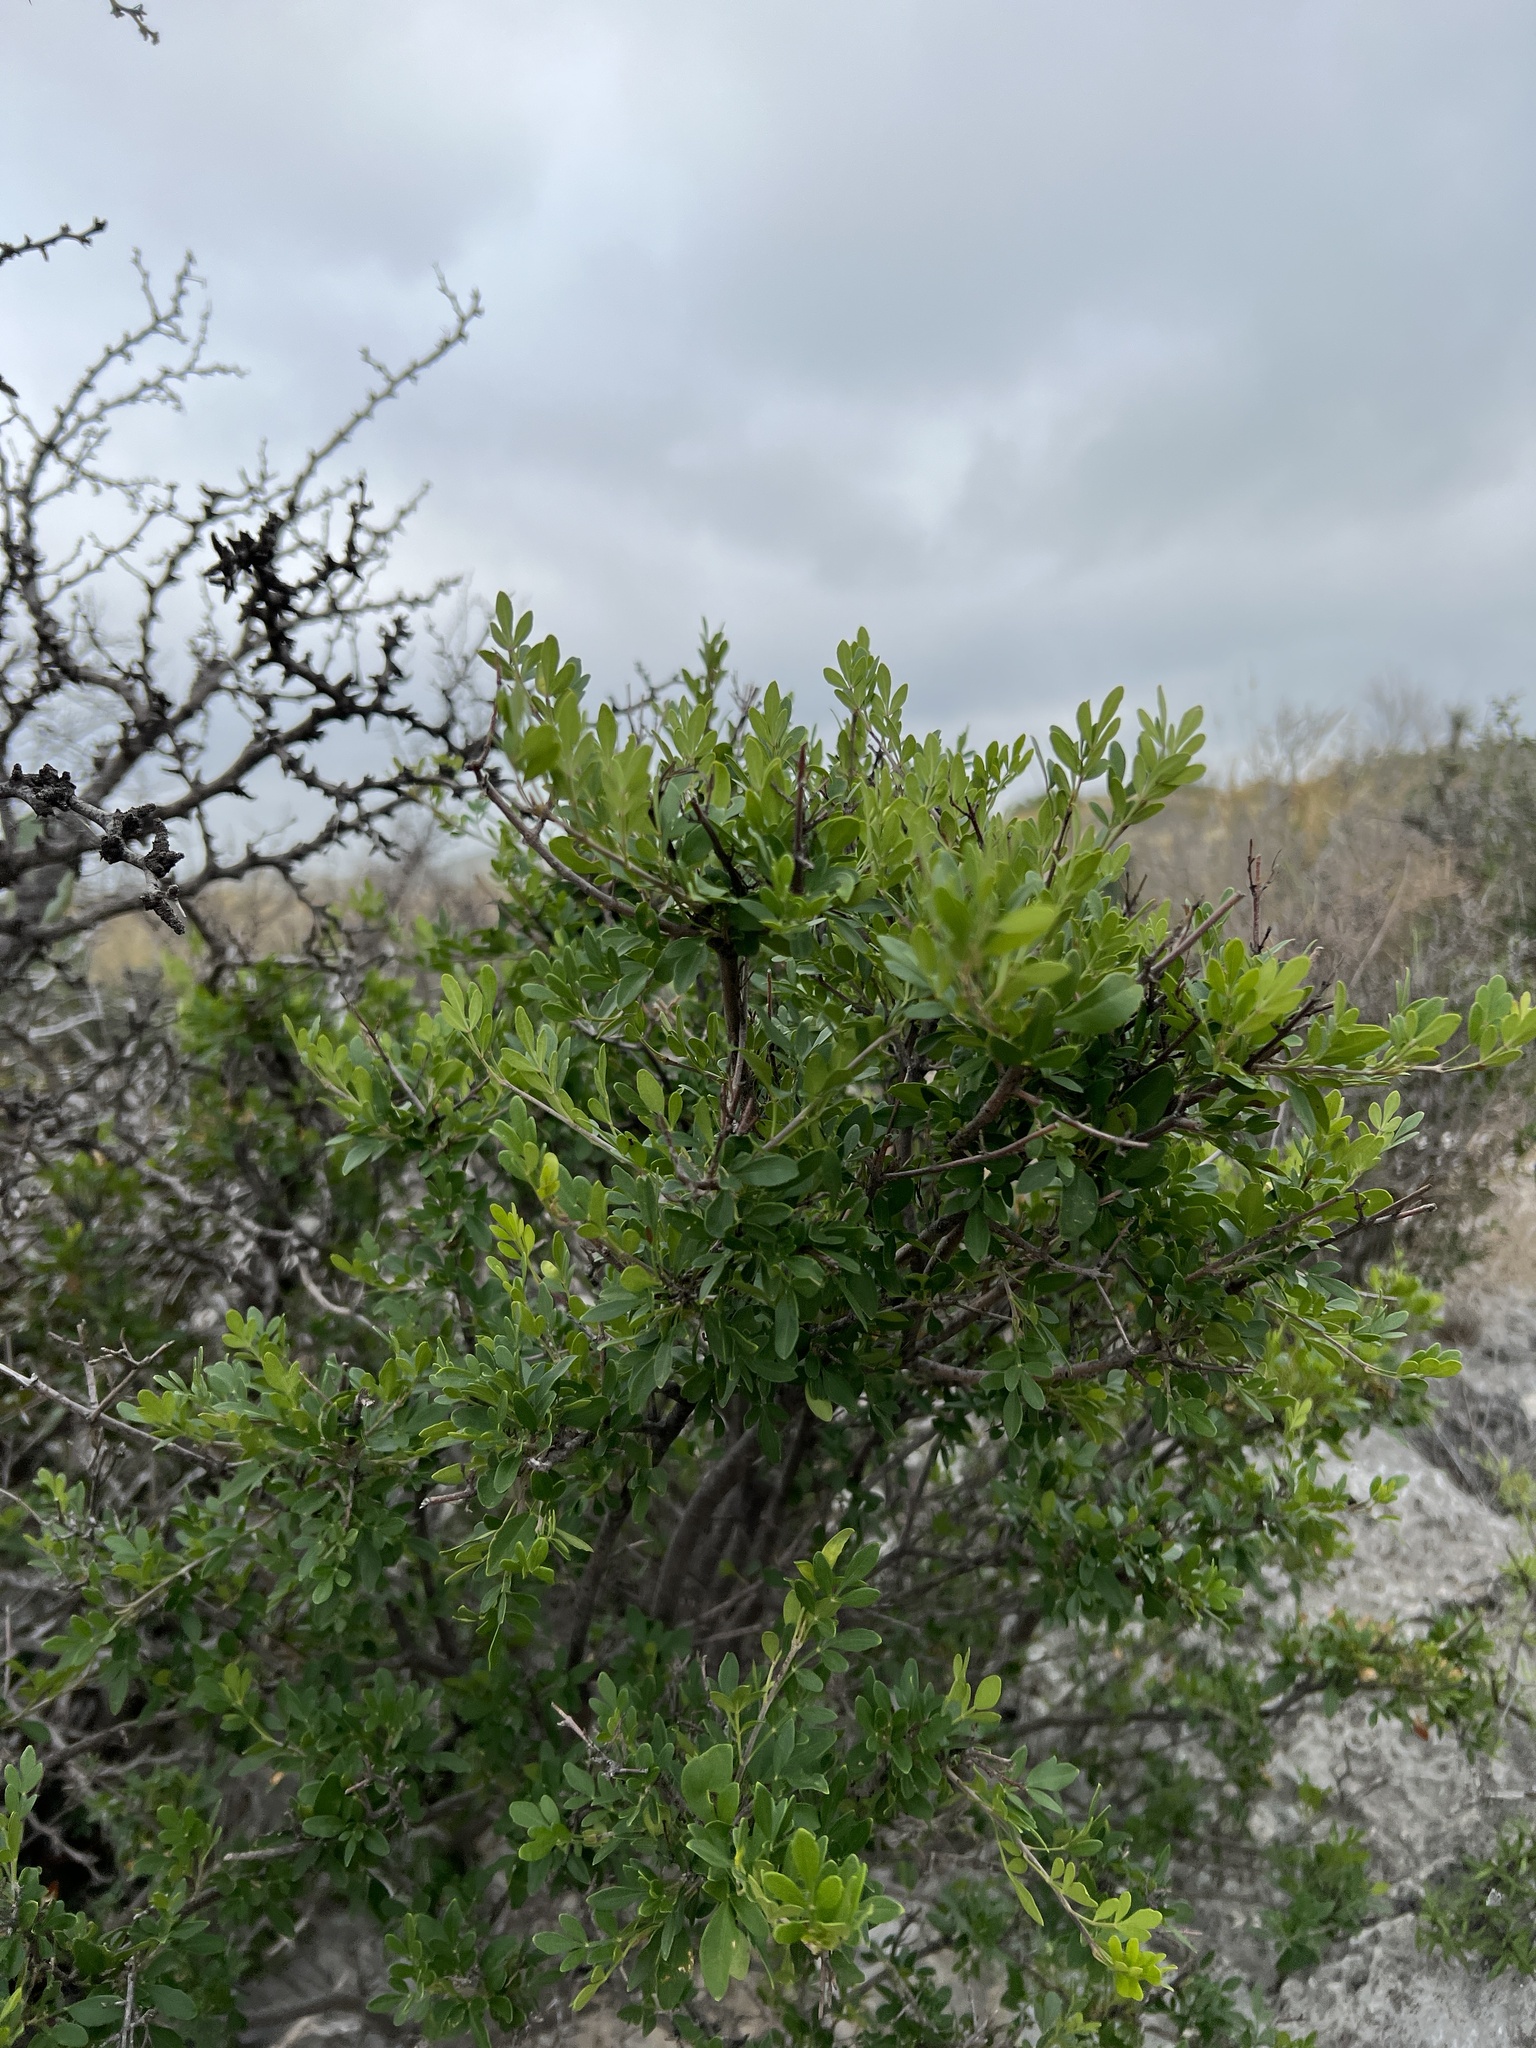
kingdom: Plantae
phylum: Tracheophyta
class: Magnoliopsida
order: Lamiales
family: Oleaceae
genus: Fraxinus
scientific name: Fraxinus greggii
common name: Gregg ash
